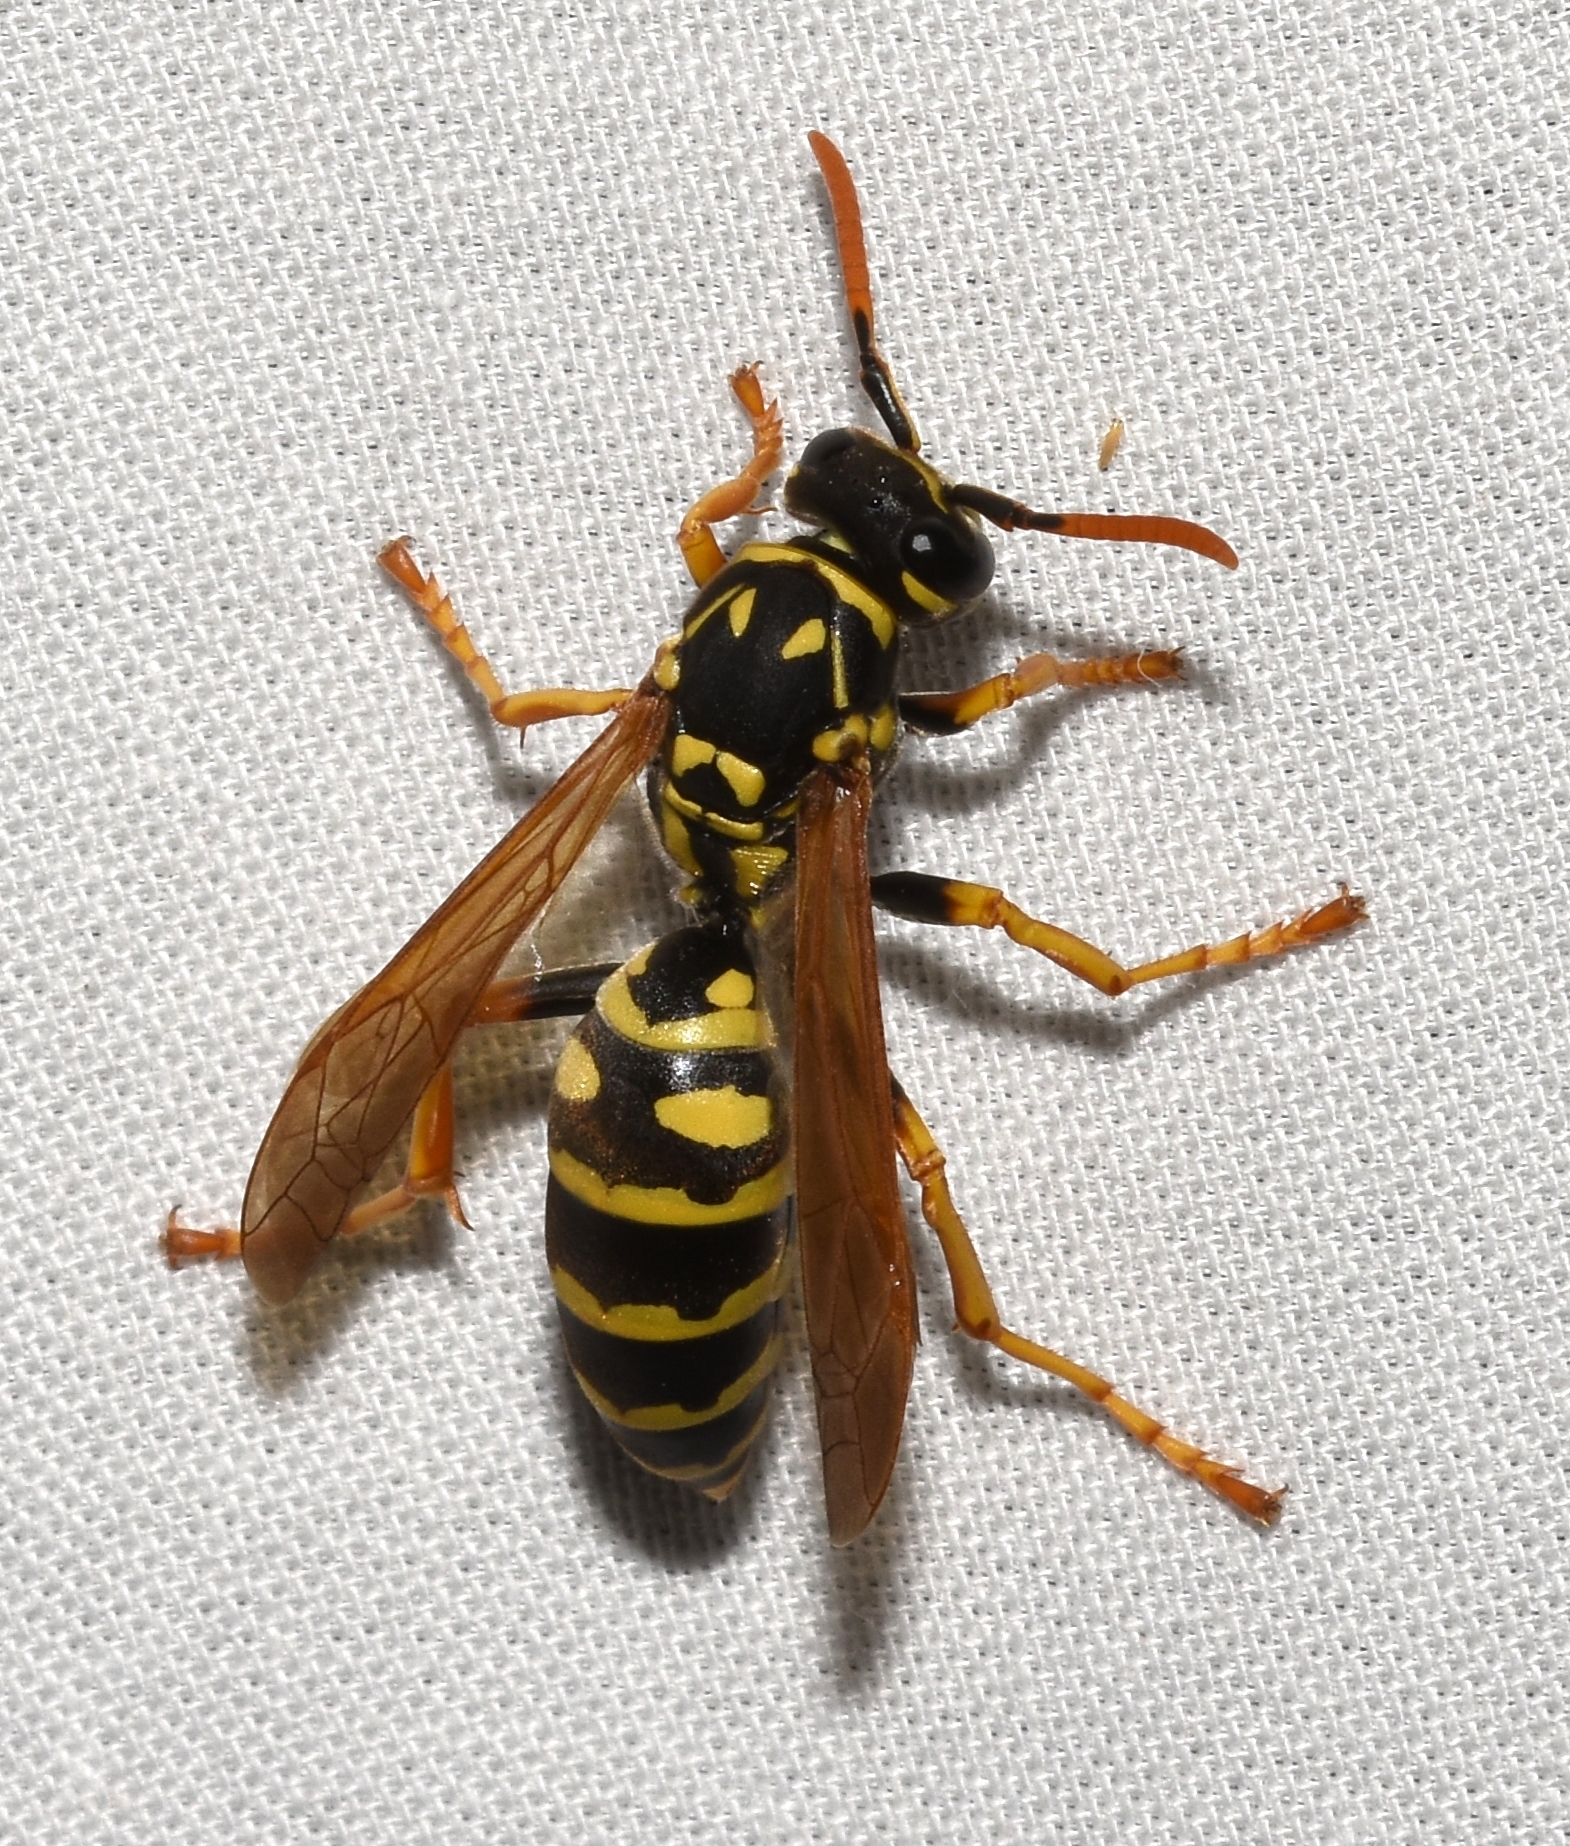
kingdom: Animalia
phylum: Arthropoda
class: Insecta
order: Hymenoptera
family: Eumenidae
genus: Polistes
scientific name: Polistes dominula
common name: Paper wasp
